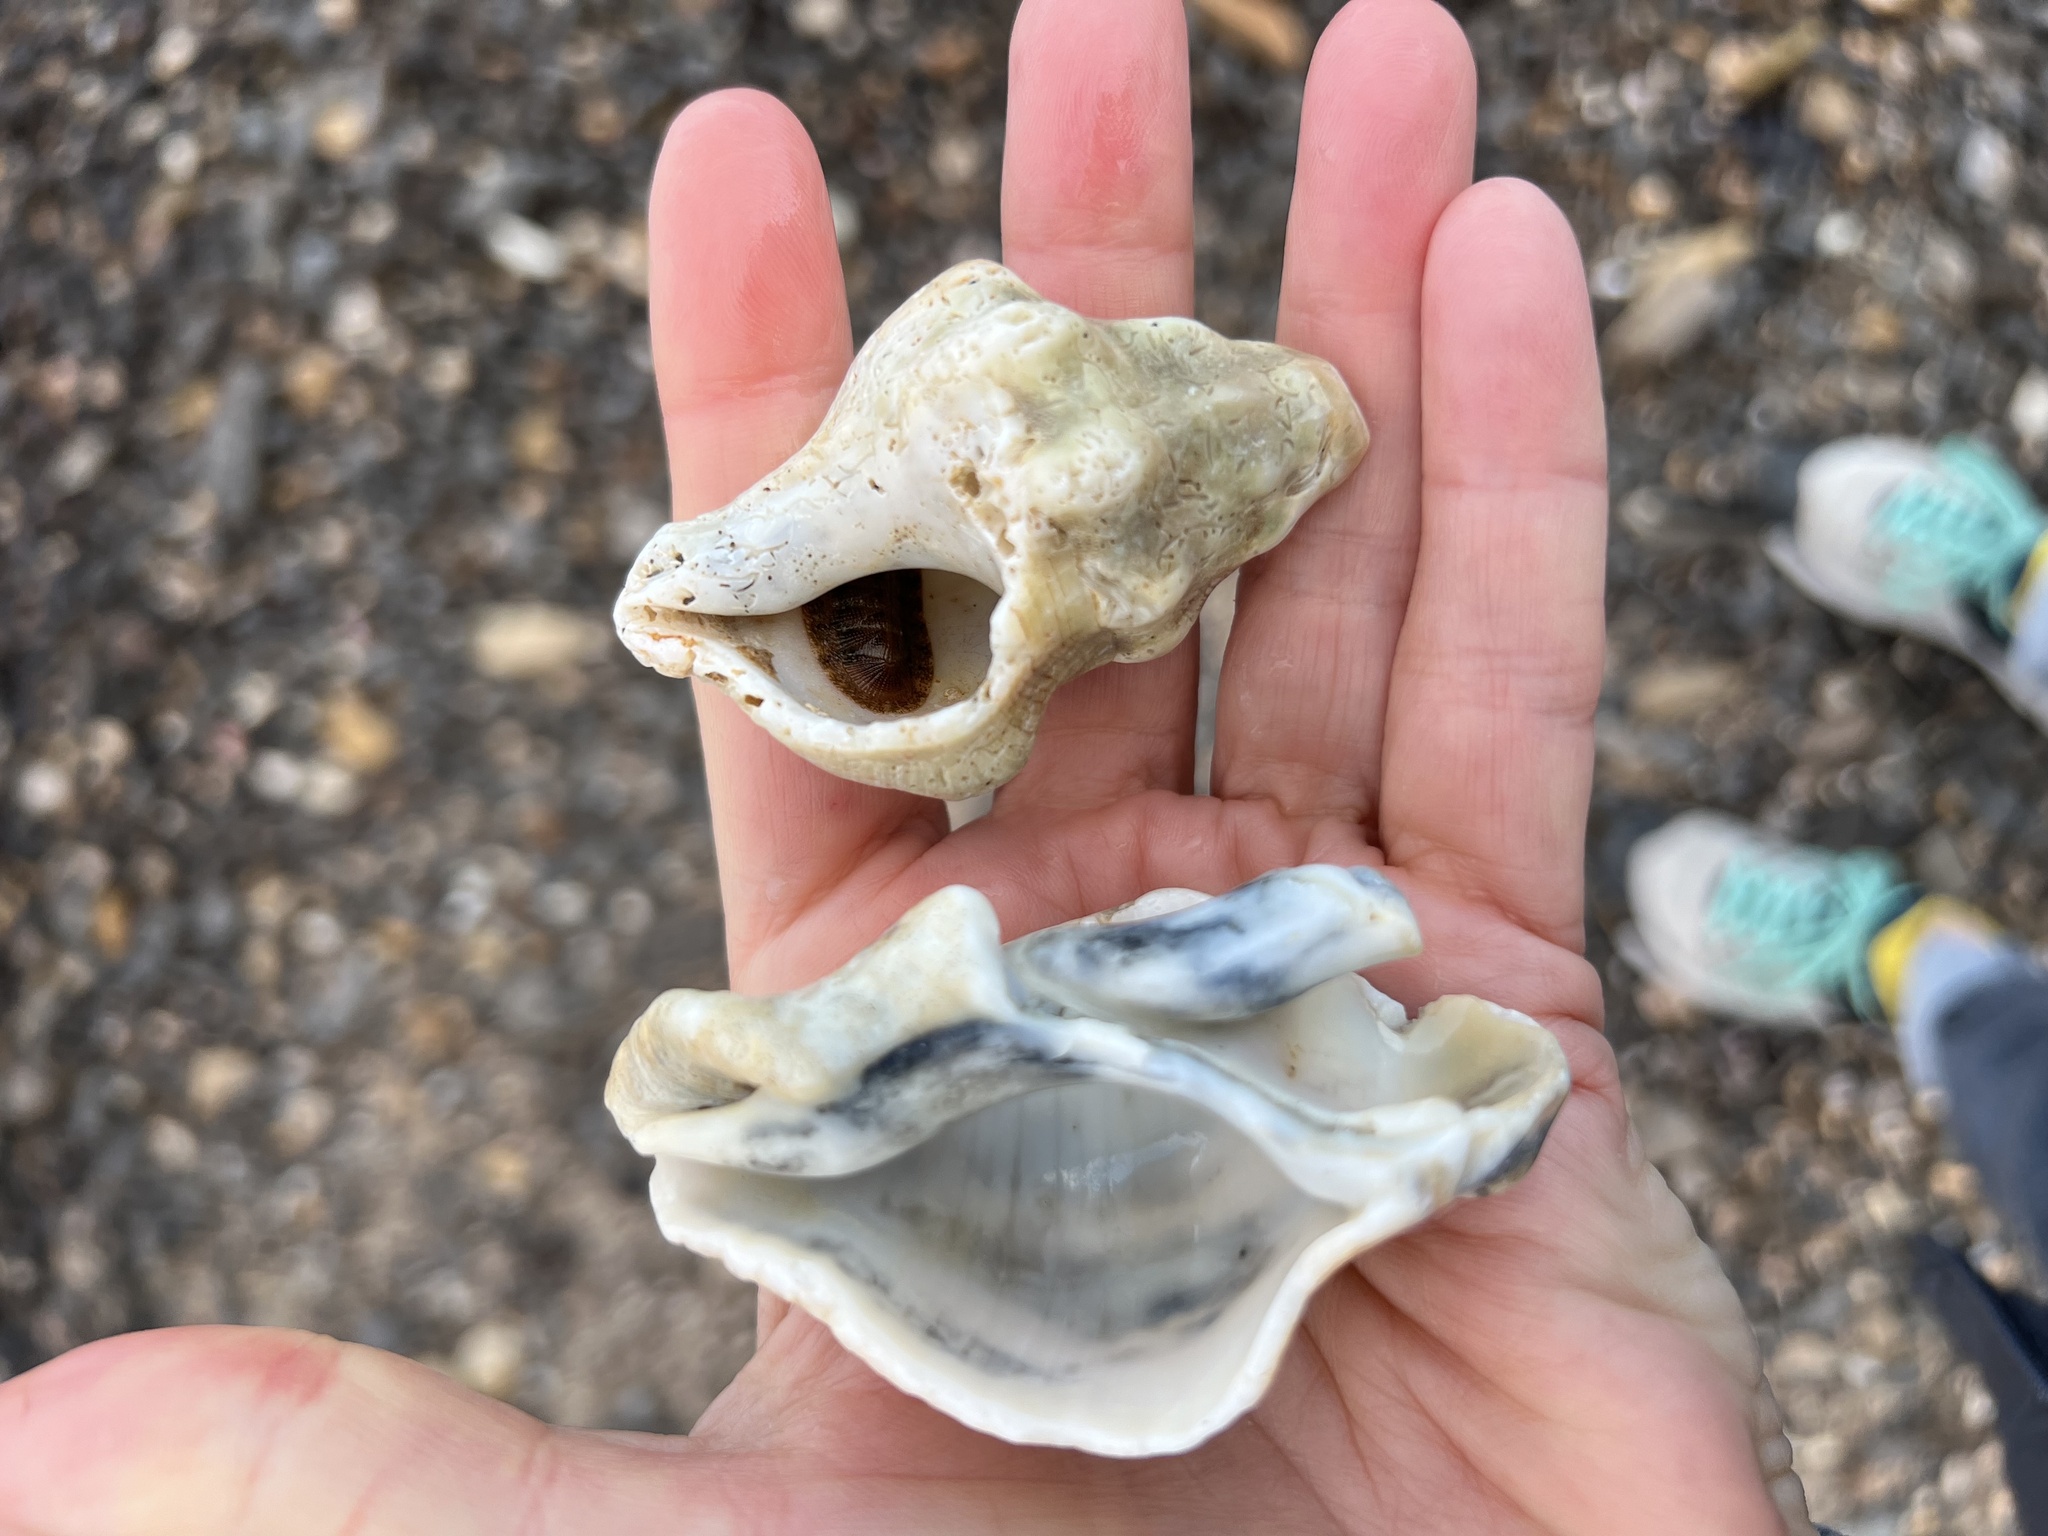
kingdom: Animalia
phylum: Mollusca
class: Gastropoda
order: Neogastropoda
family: Austrosiphonidae
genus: Kelletia
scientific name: Kelletia kelletii
